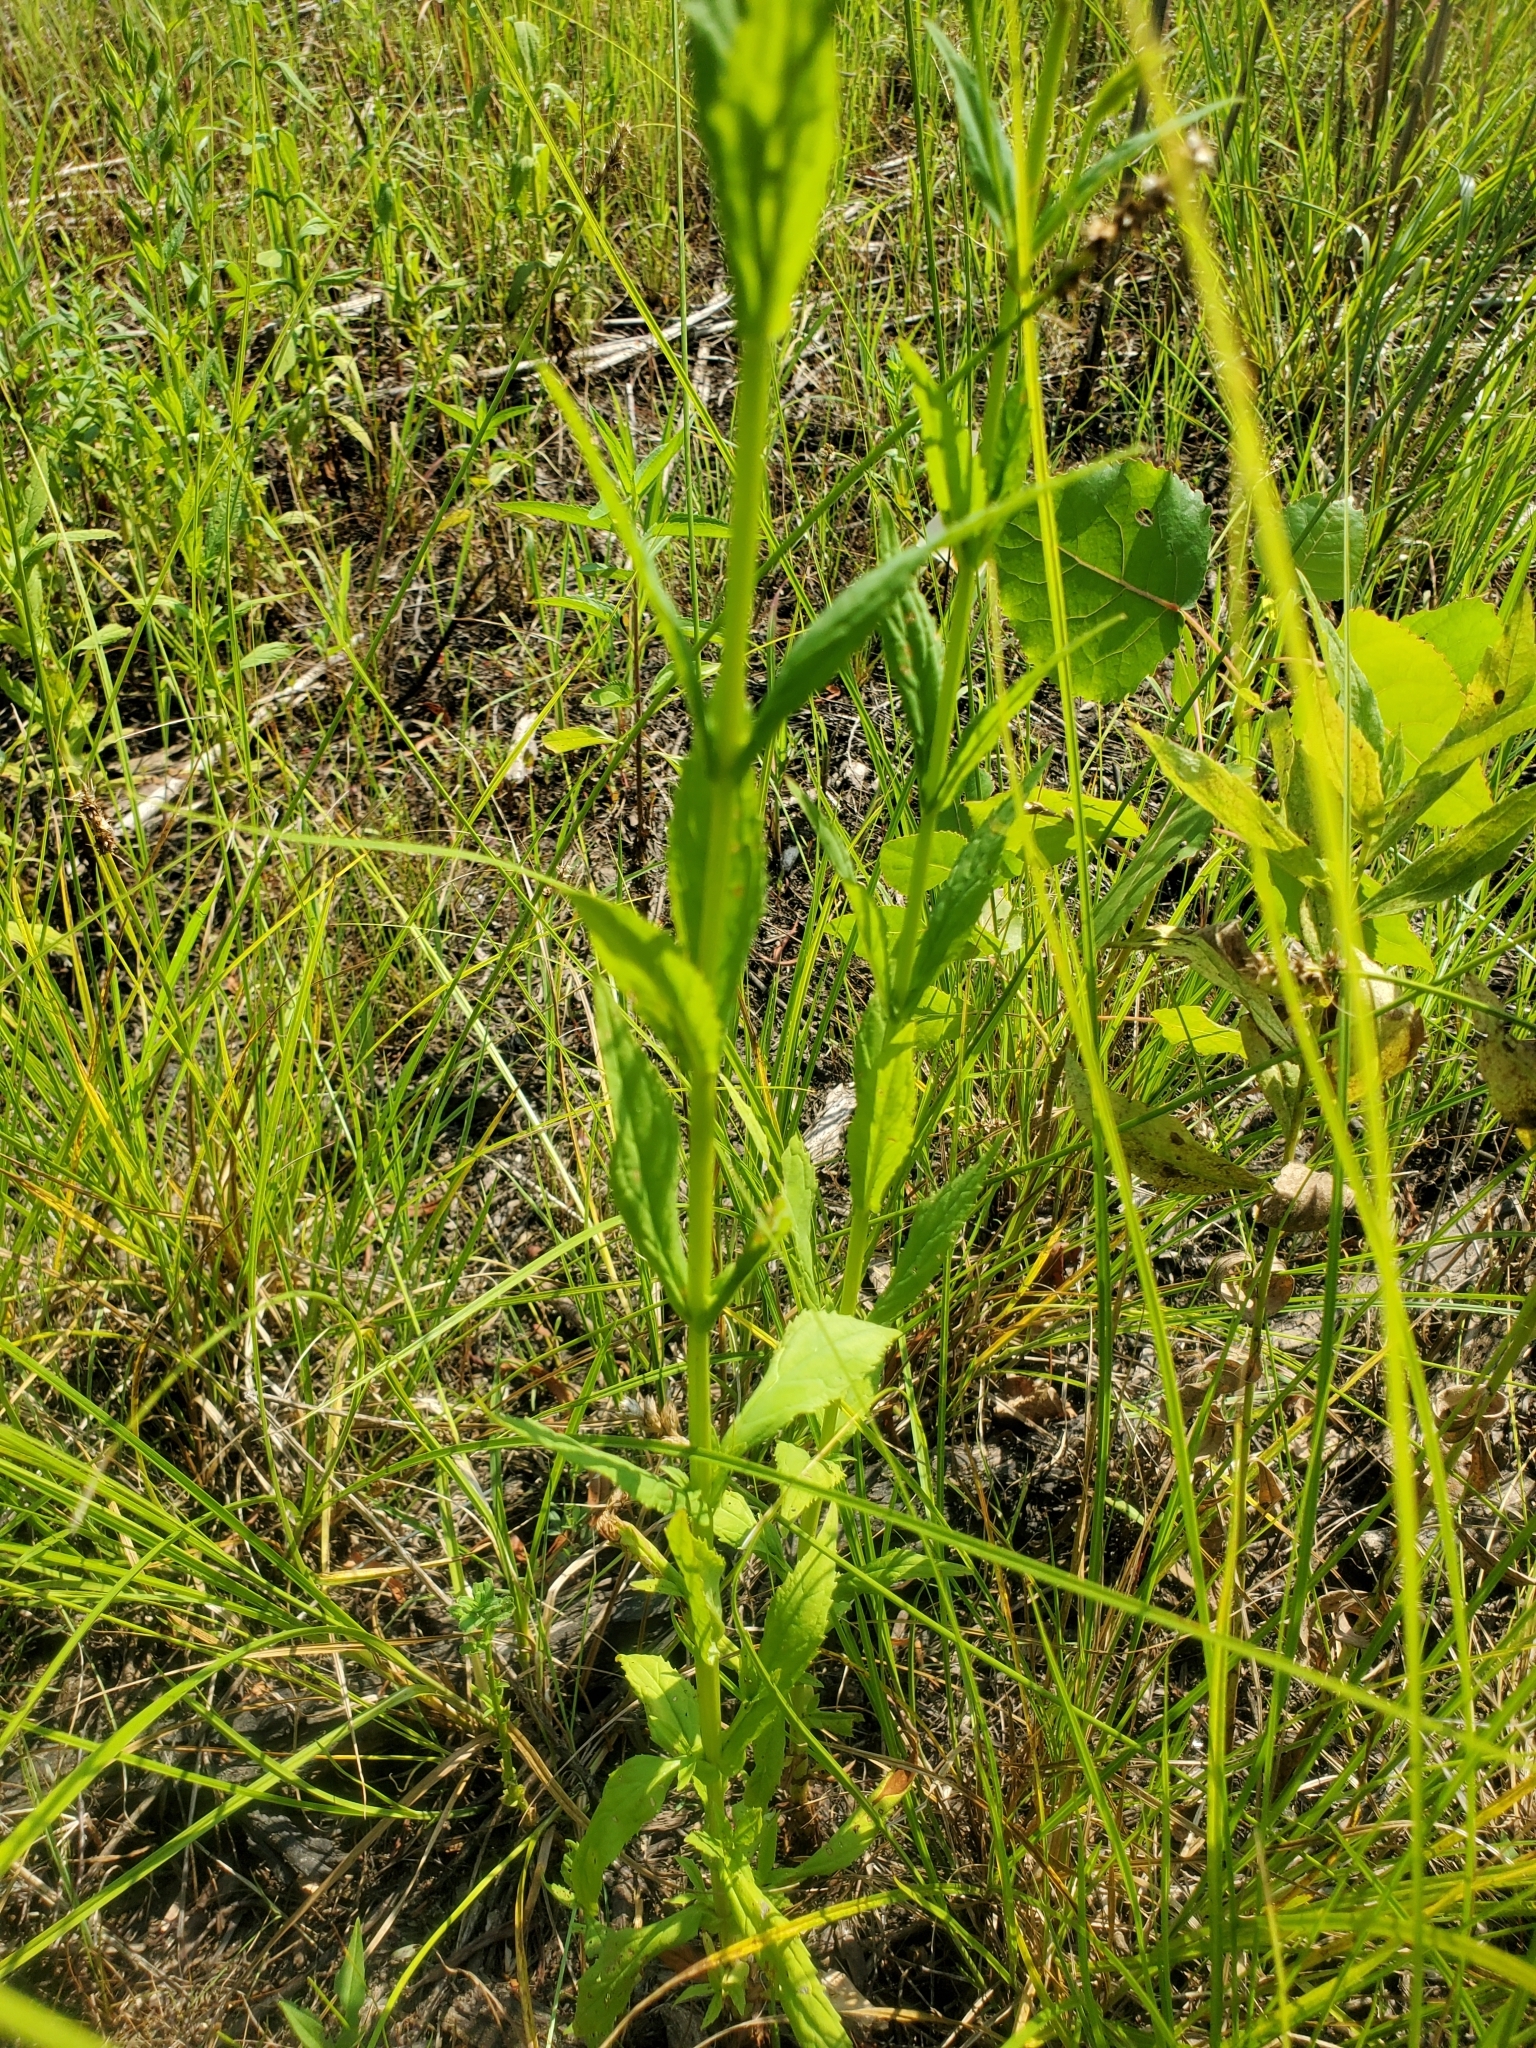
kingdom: Plantae
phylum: Tracheophyta
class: Magnoliopsida
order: Lamiales
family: Phrymaceae
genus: Mimulus
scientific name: Mimulus ringens
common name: Allegheny monkeyflower
